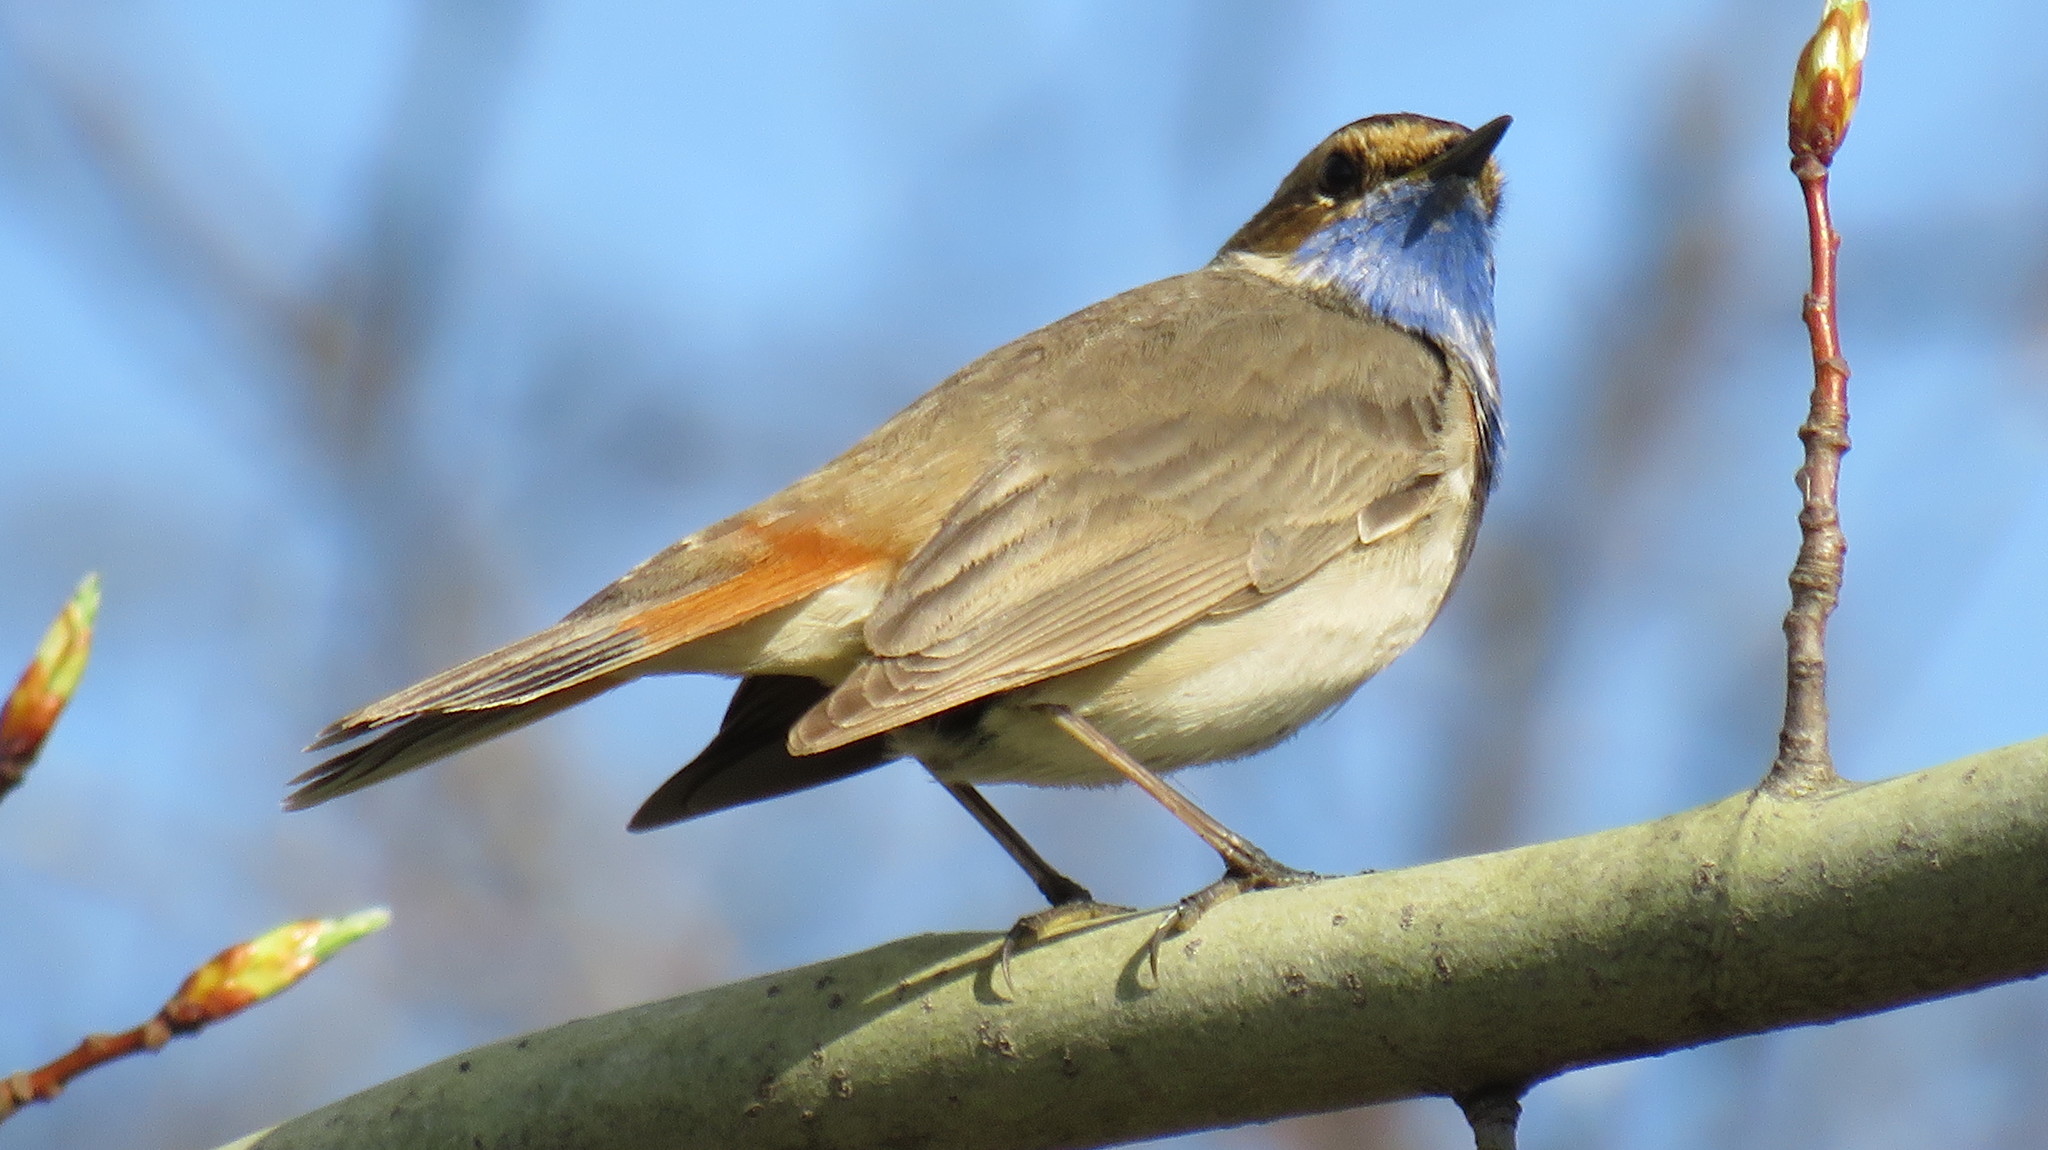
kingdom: Animalia
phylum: Chordata
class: Aves
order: Passeriformes
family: Muscicapidae
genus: Luscinia
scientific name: Luscinia svecica
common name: Bluethroat
